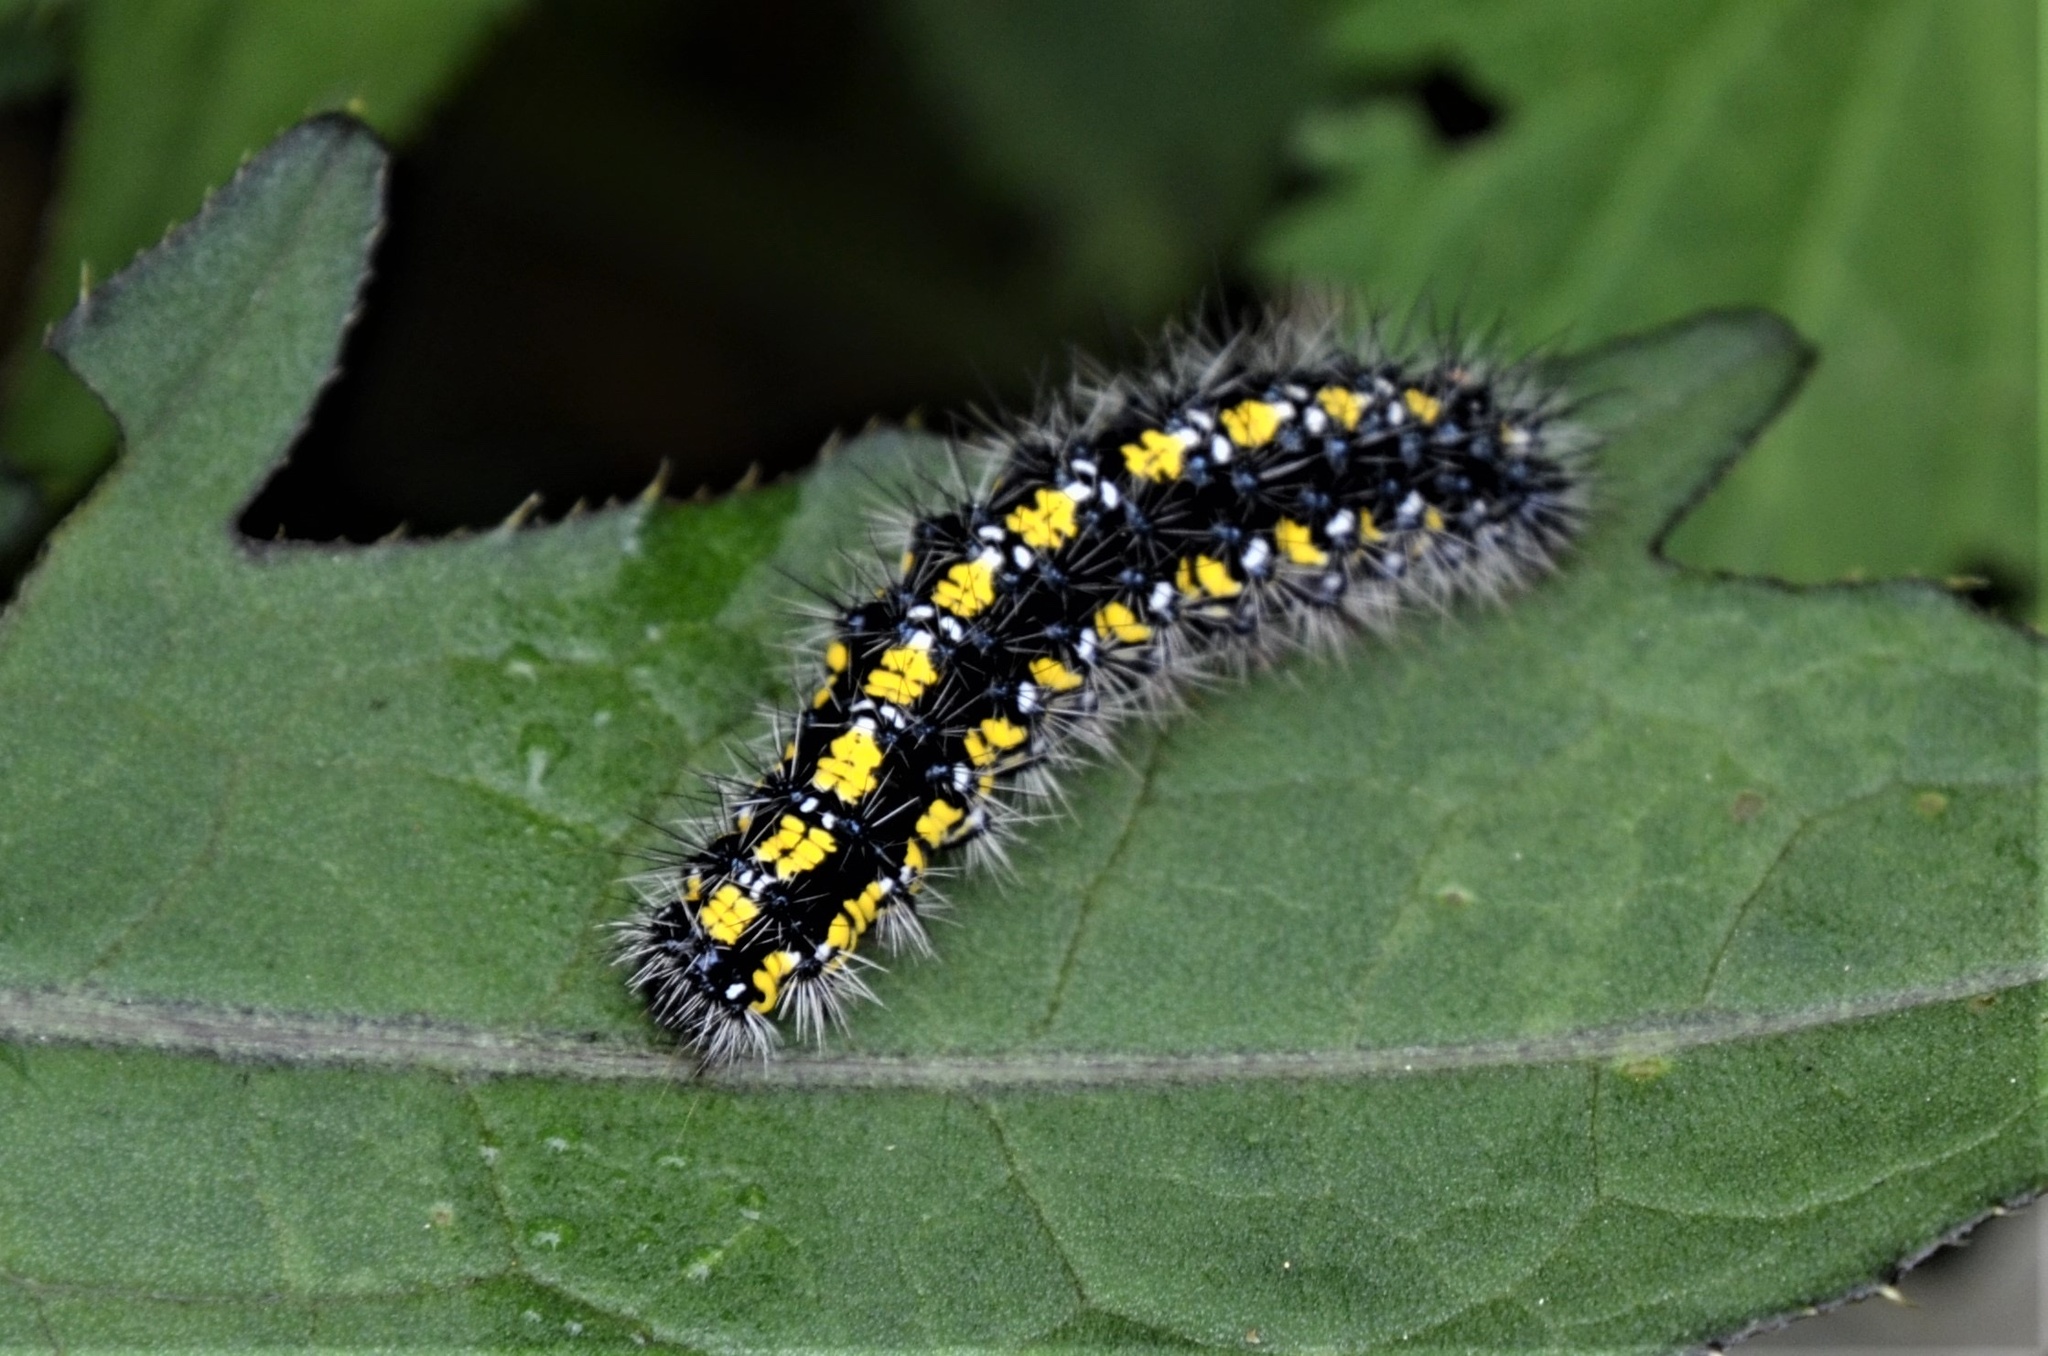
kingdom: Animalia
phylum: Arthropoda
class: Insecta
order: Lepidoptera
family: Erebidae
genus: Callimorpha
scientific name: Callimorpha dominula
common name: Scarlet tiger
